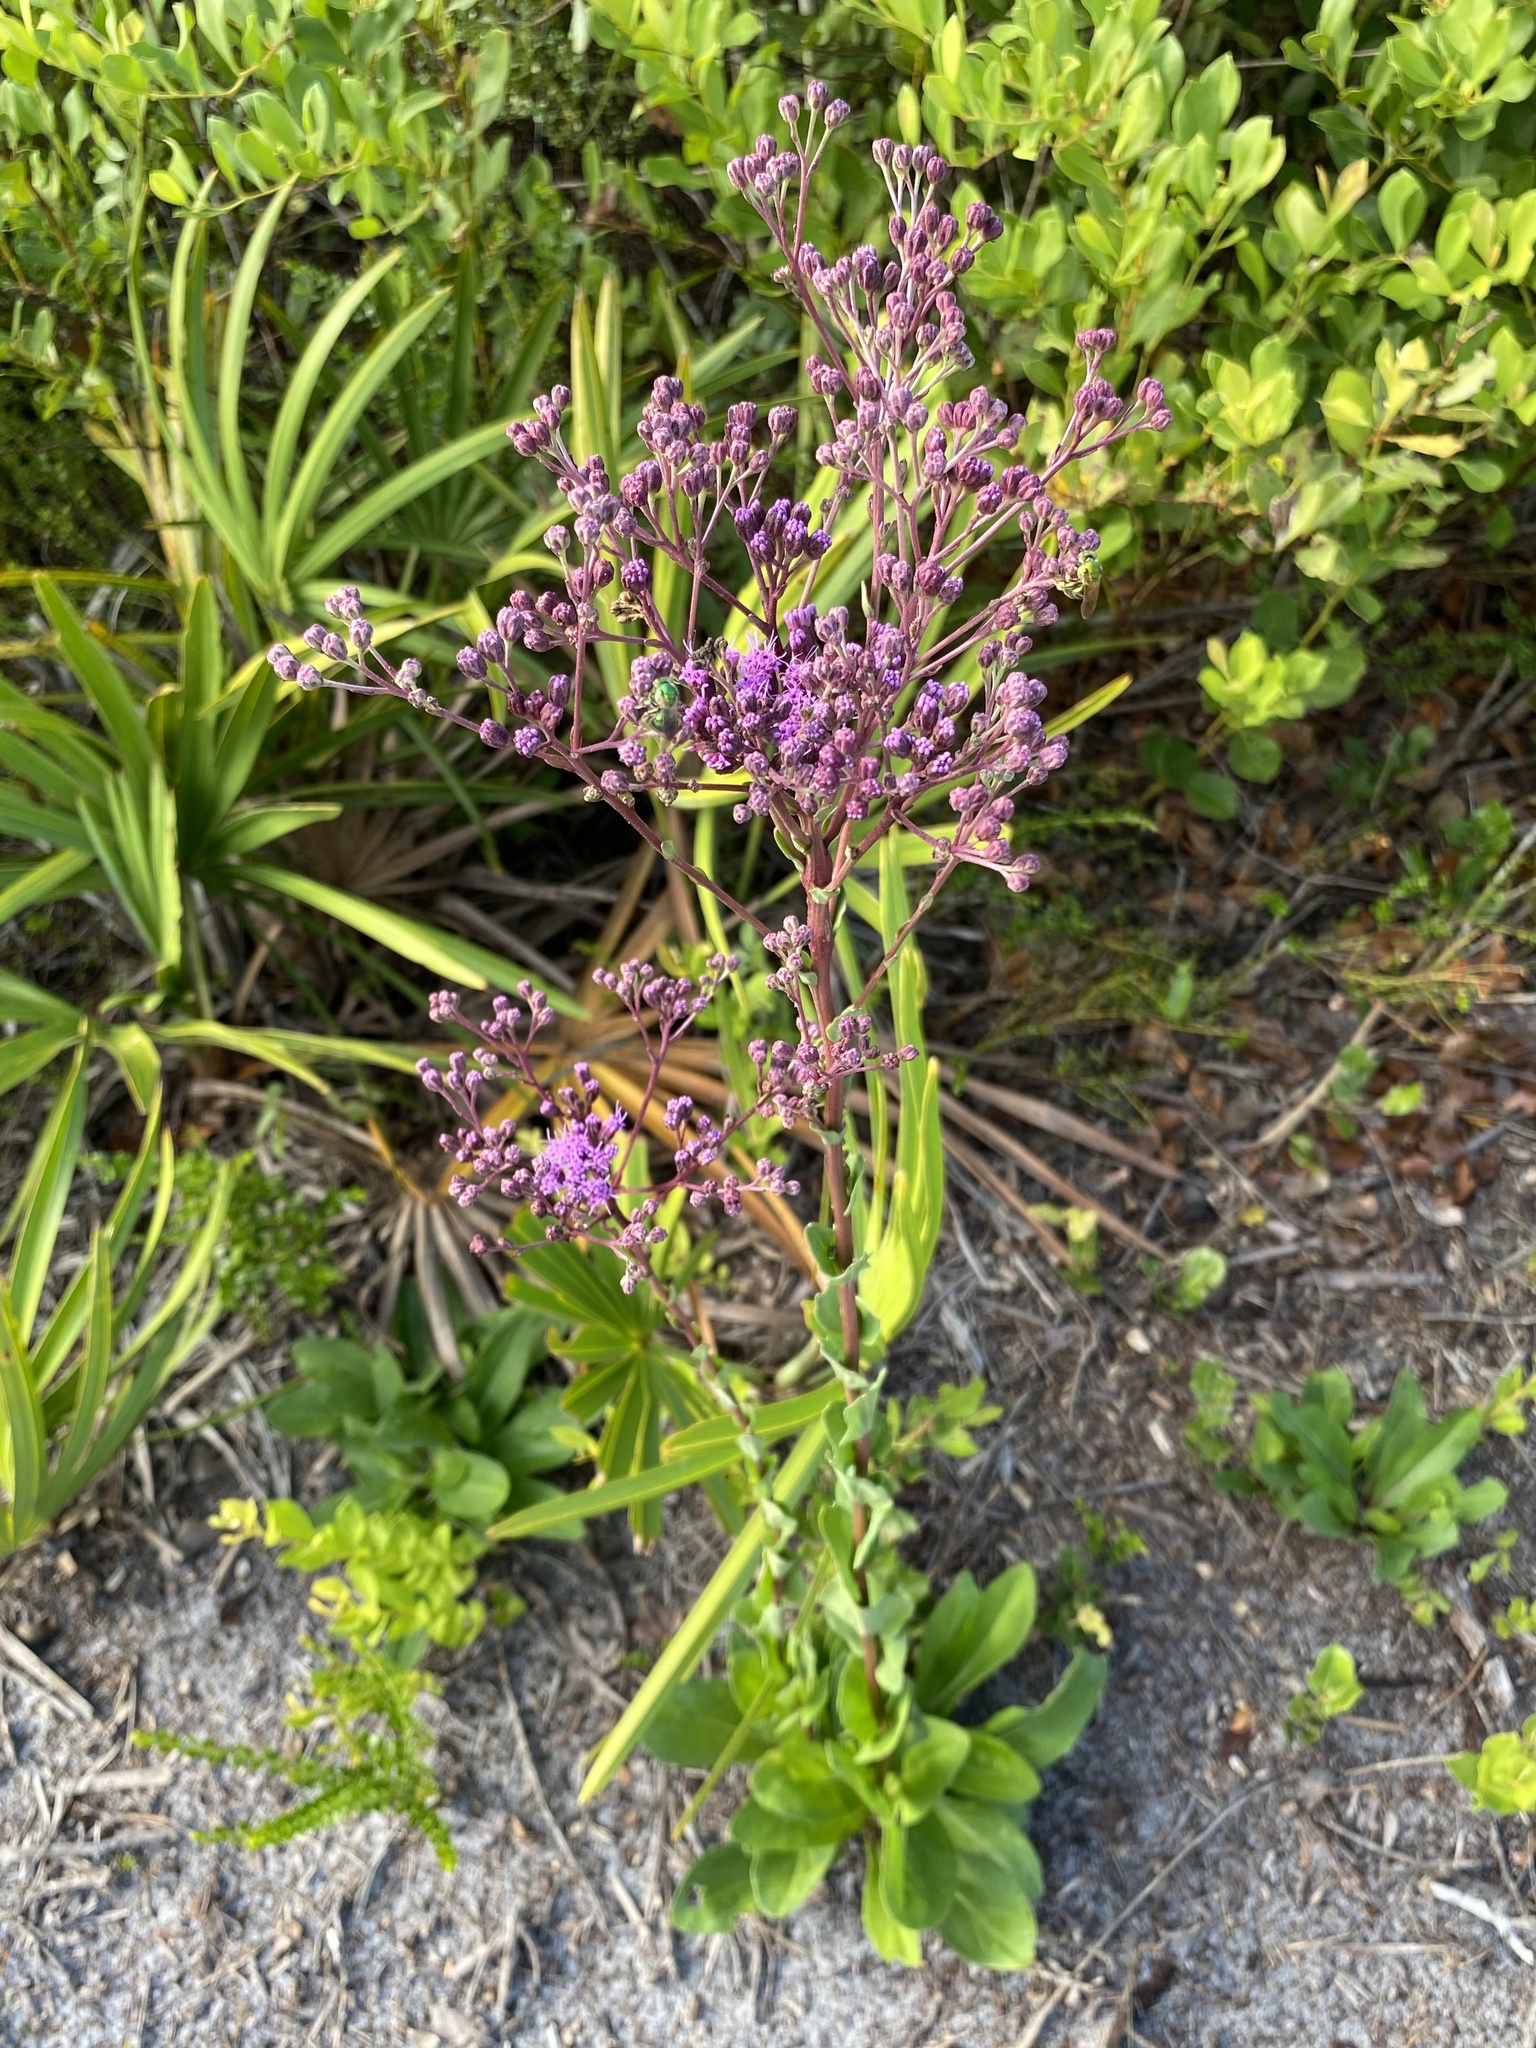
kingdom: Plantae
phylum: Tracheophyta
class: Magnoliopsida
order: Asterales
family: Asteraceae
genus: Carphephorus
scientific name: Carphephorus odoratissimus
